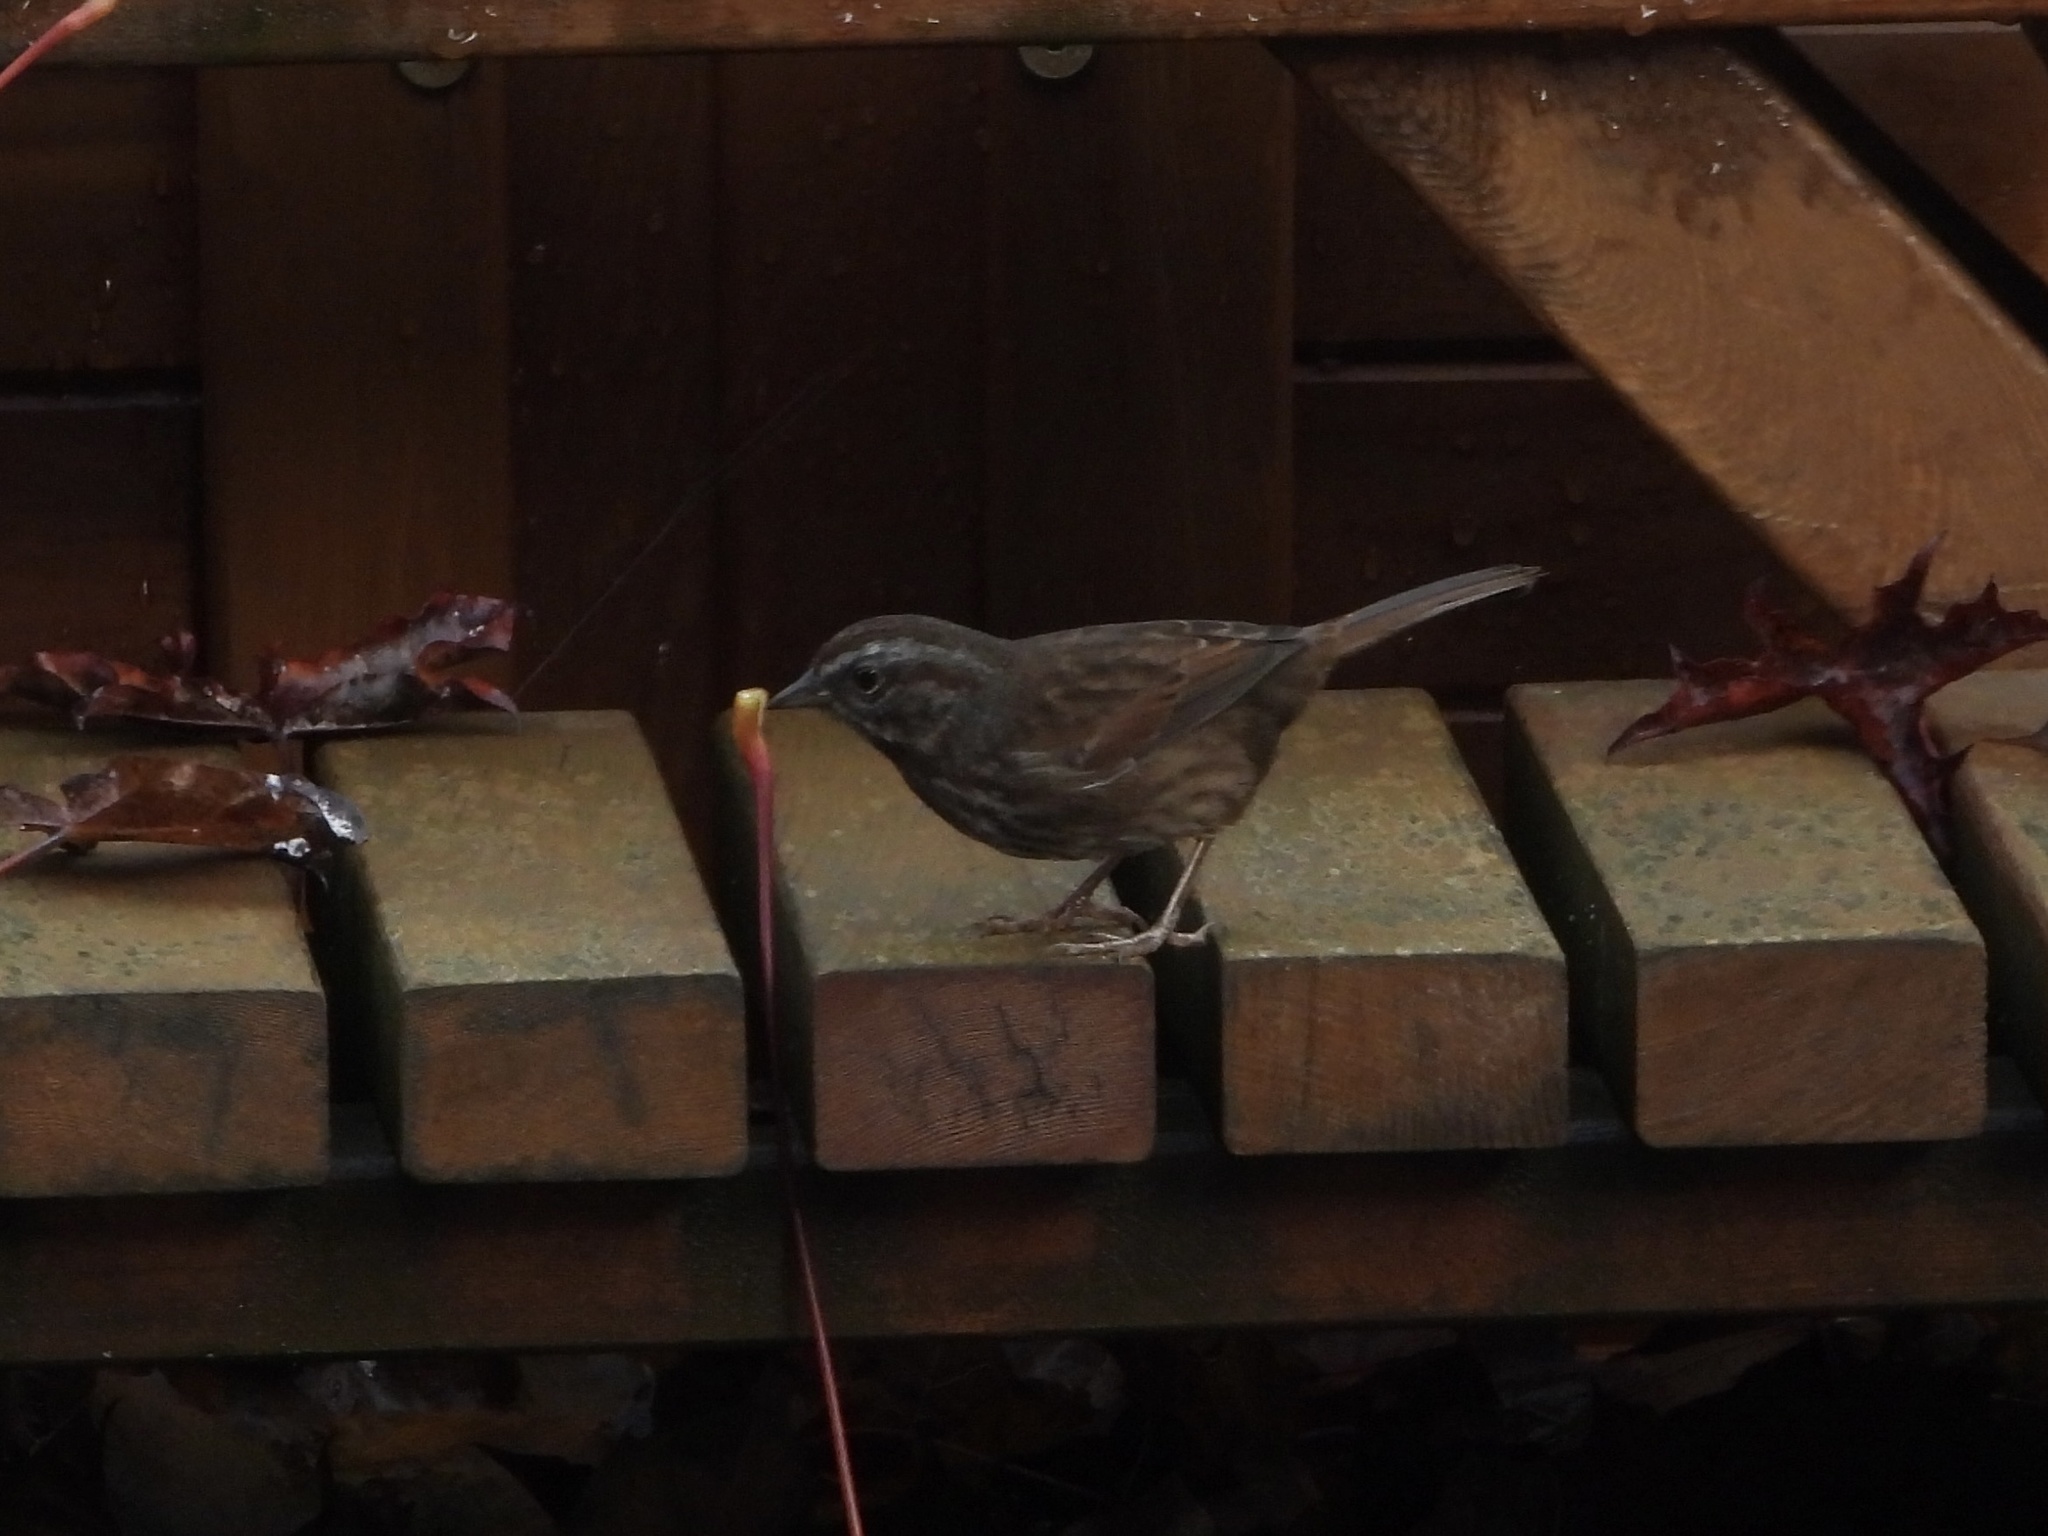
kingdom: Animalia
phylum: Chordata
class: Aves
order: Passeriformes
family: Passerellidae
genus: Melospiza
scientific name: Melospiza melodia
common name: Song sparrow
